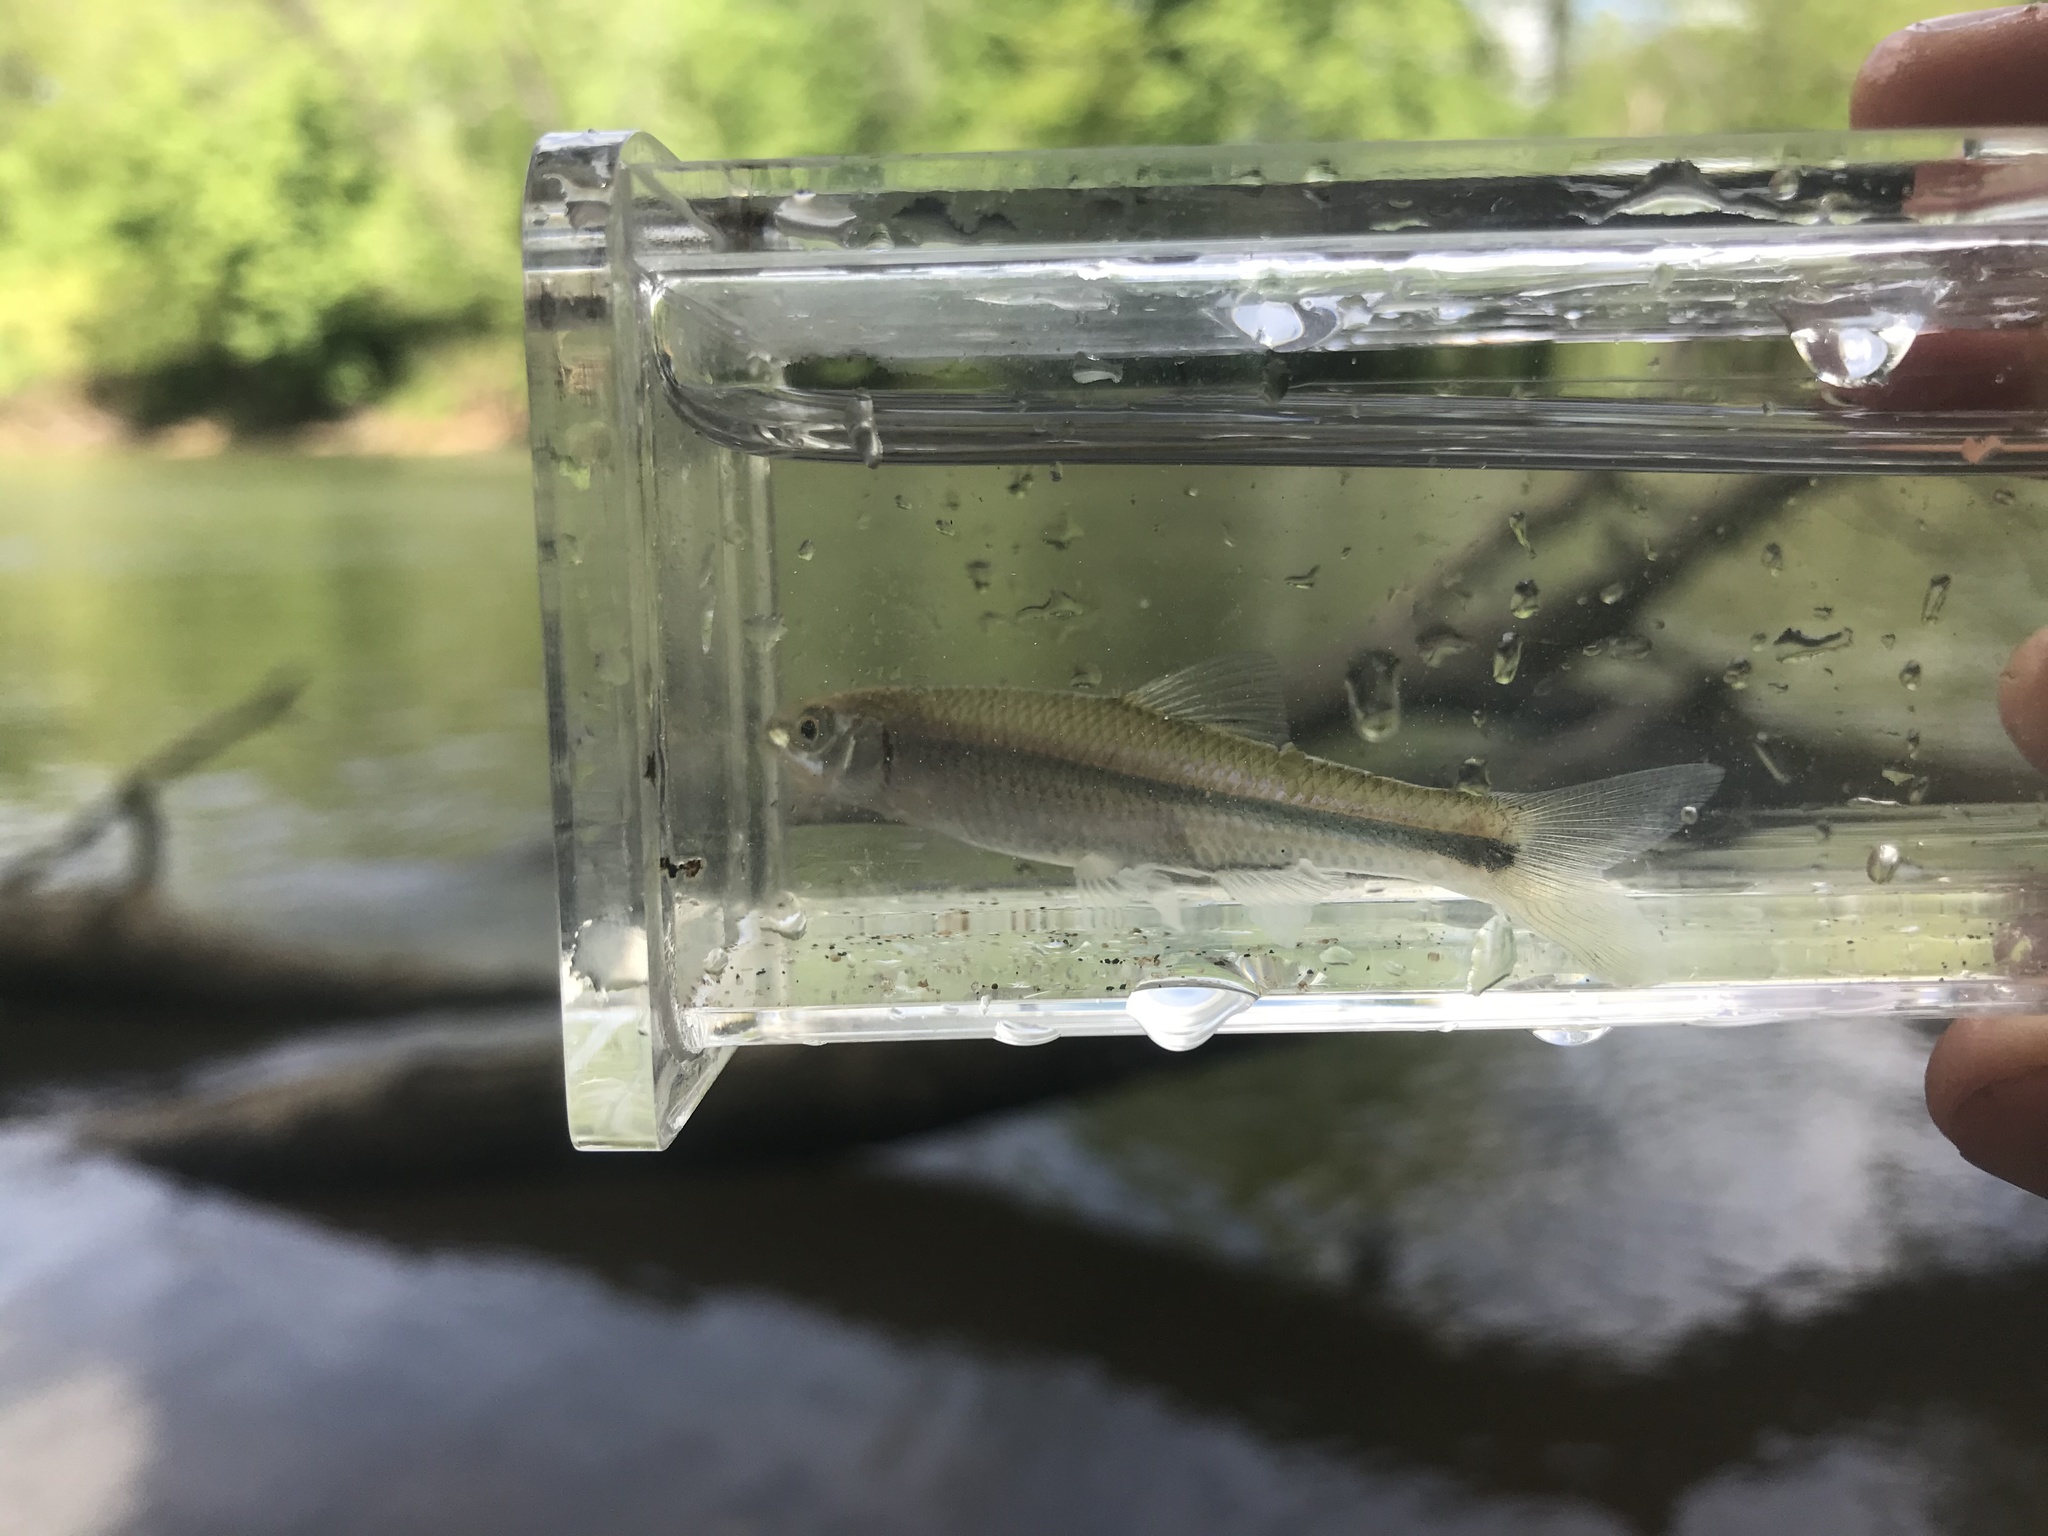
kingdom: Animalia
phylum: Chordata
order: Cypriniformes
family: Cyprinidae
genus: Cyprinella
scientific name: Cyprinella nivea
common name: Whitefin shiner
